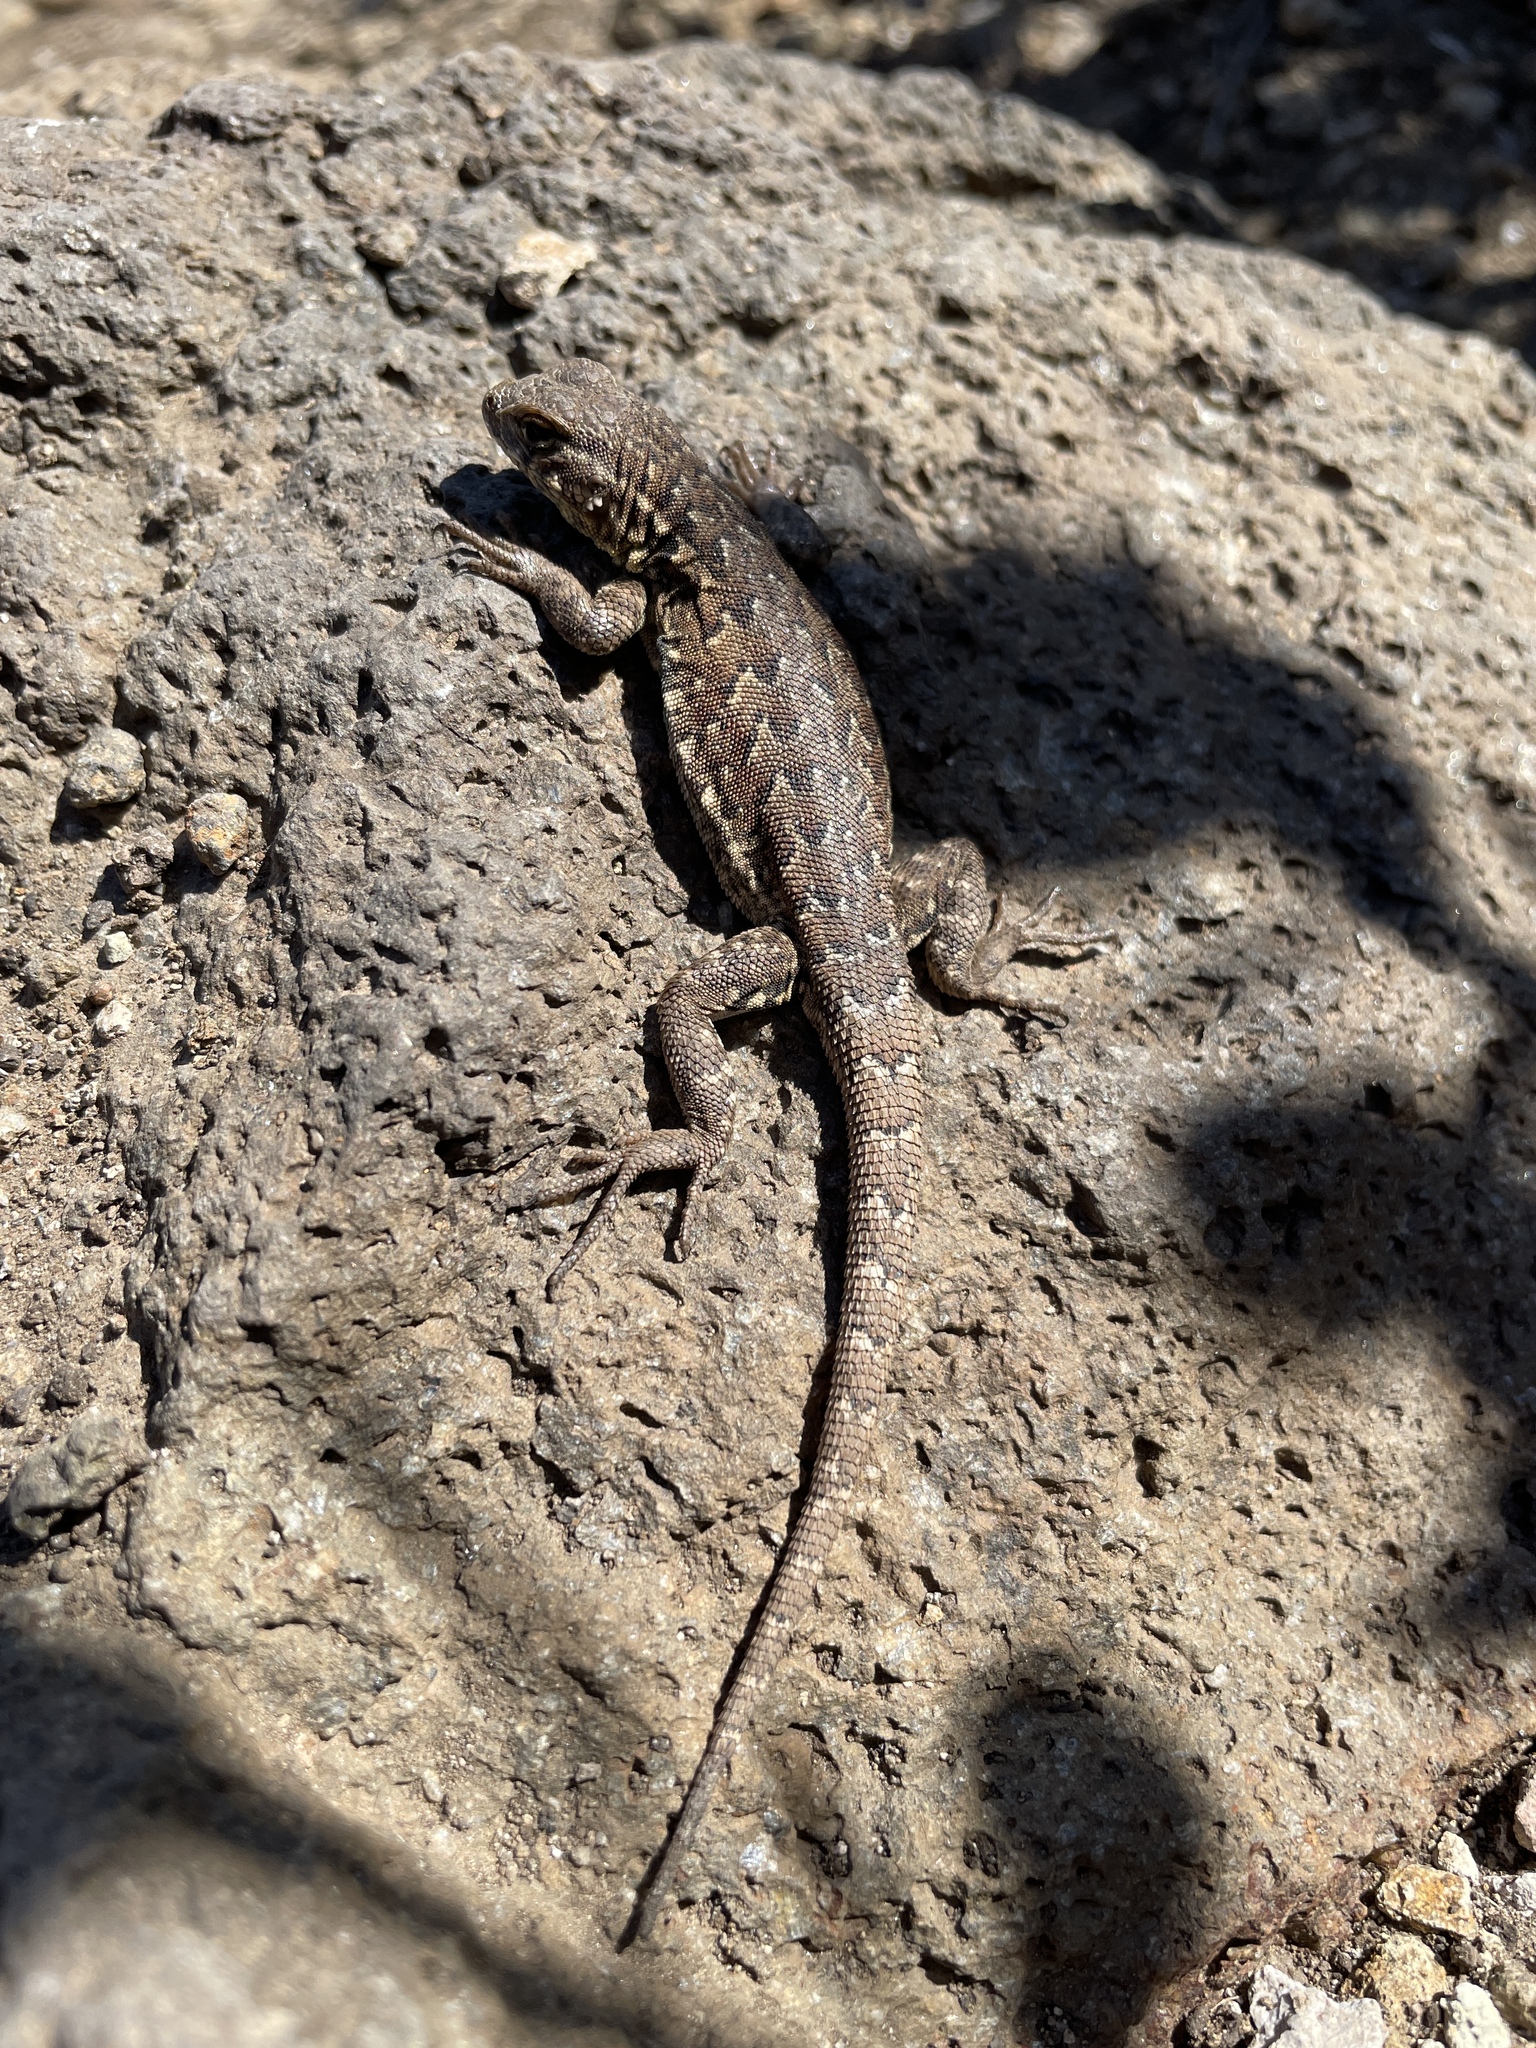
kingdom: Animalia
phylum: Chordata
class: Squamata
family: Phrynosomatidae
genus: Uta
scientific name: Uta stansburiana
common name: Side-blotched lizard
